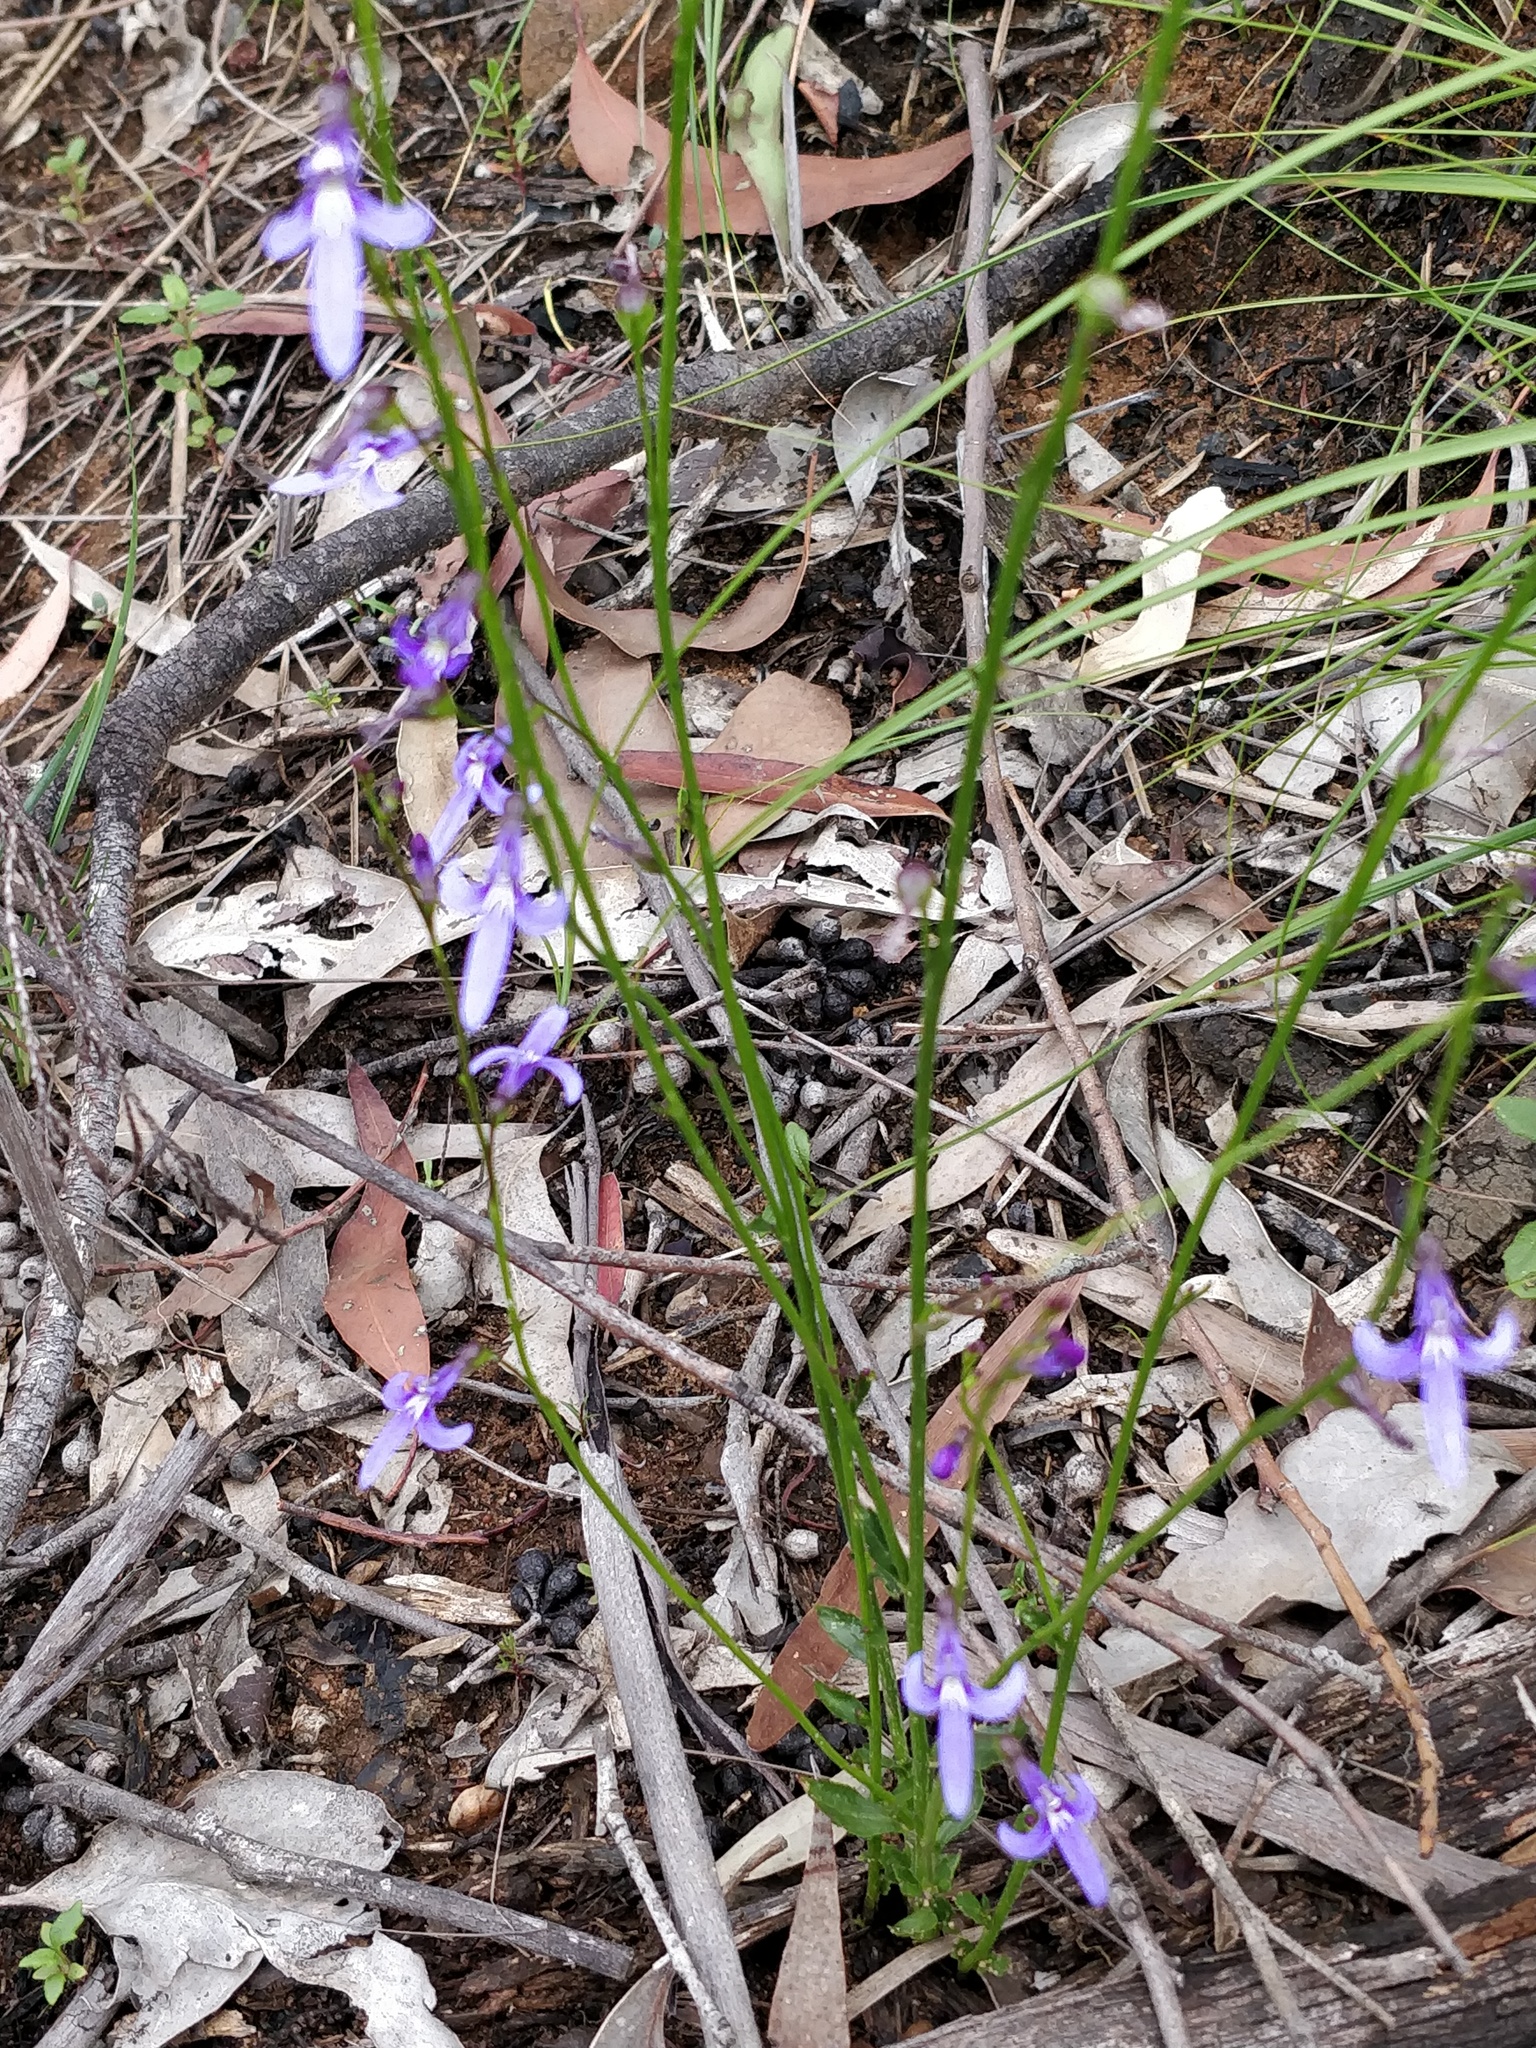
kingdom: Plantae
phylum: Tracheophyta
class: Magnoliopsida
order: Asterales
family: Campanulaceae
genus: Lobelia
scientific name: Lobelia dentata
